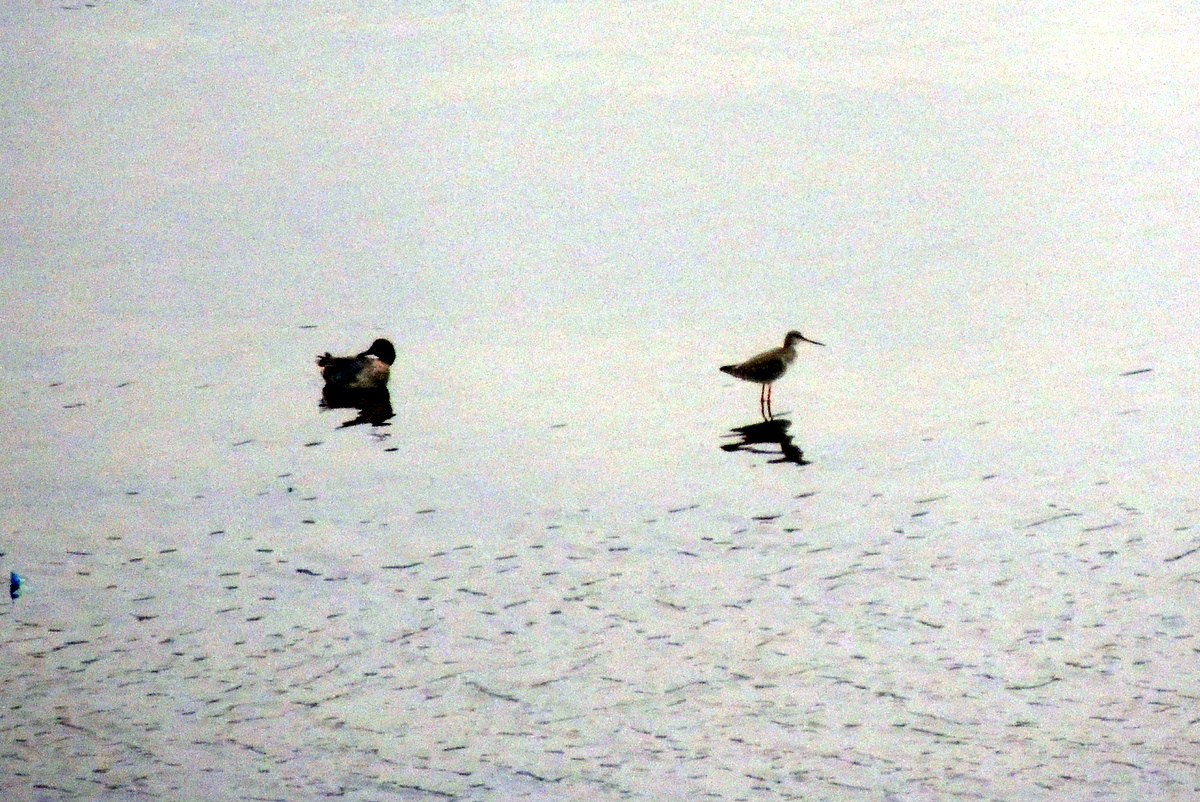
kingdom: Animalia
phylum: Chordata
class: Aves
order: Anseriformes
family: Anatidae
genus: Anas
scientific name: Anas crecca
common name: Eurasian teal
